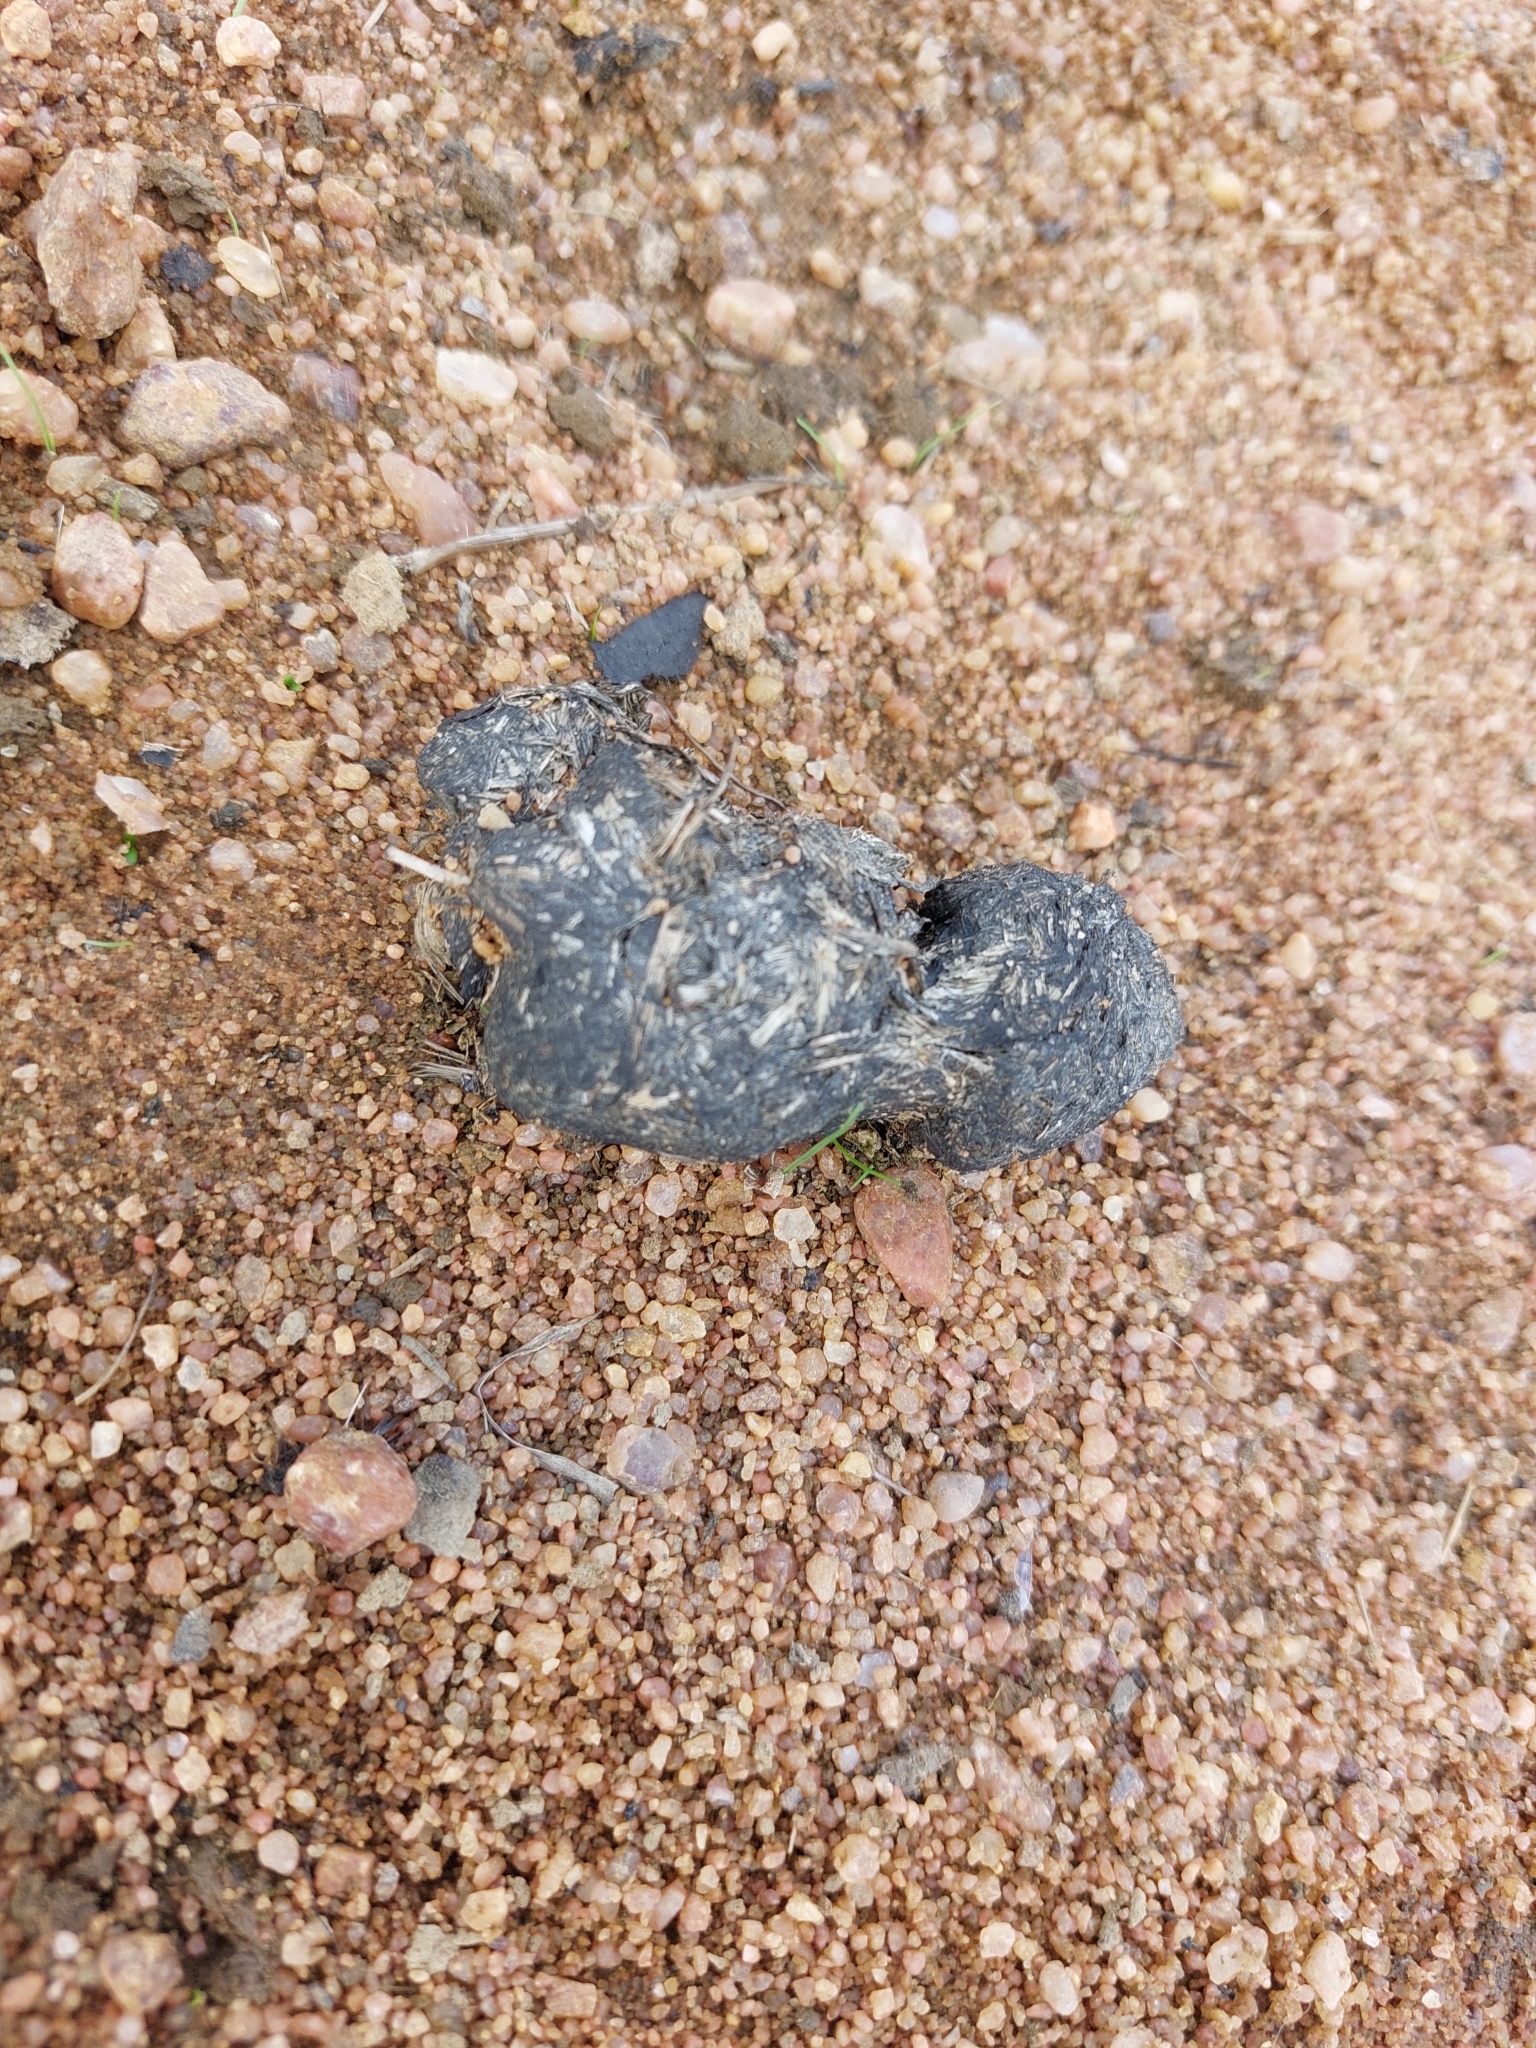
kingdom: Animalia
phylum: Chordata
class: Mammalia
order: Artiodactyla
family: Suidae
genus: Phacochoerus
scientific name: Phacochoerus africanus
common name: Common warthog
